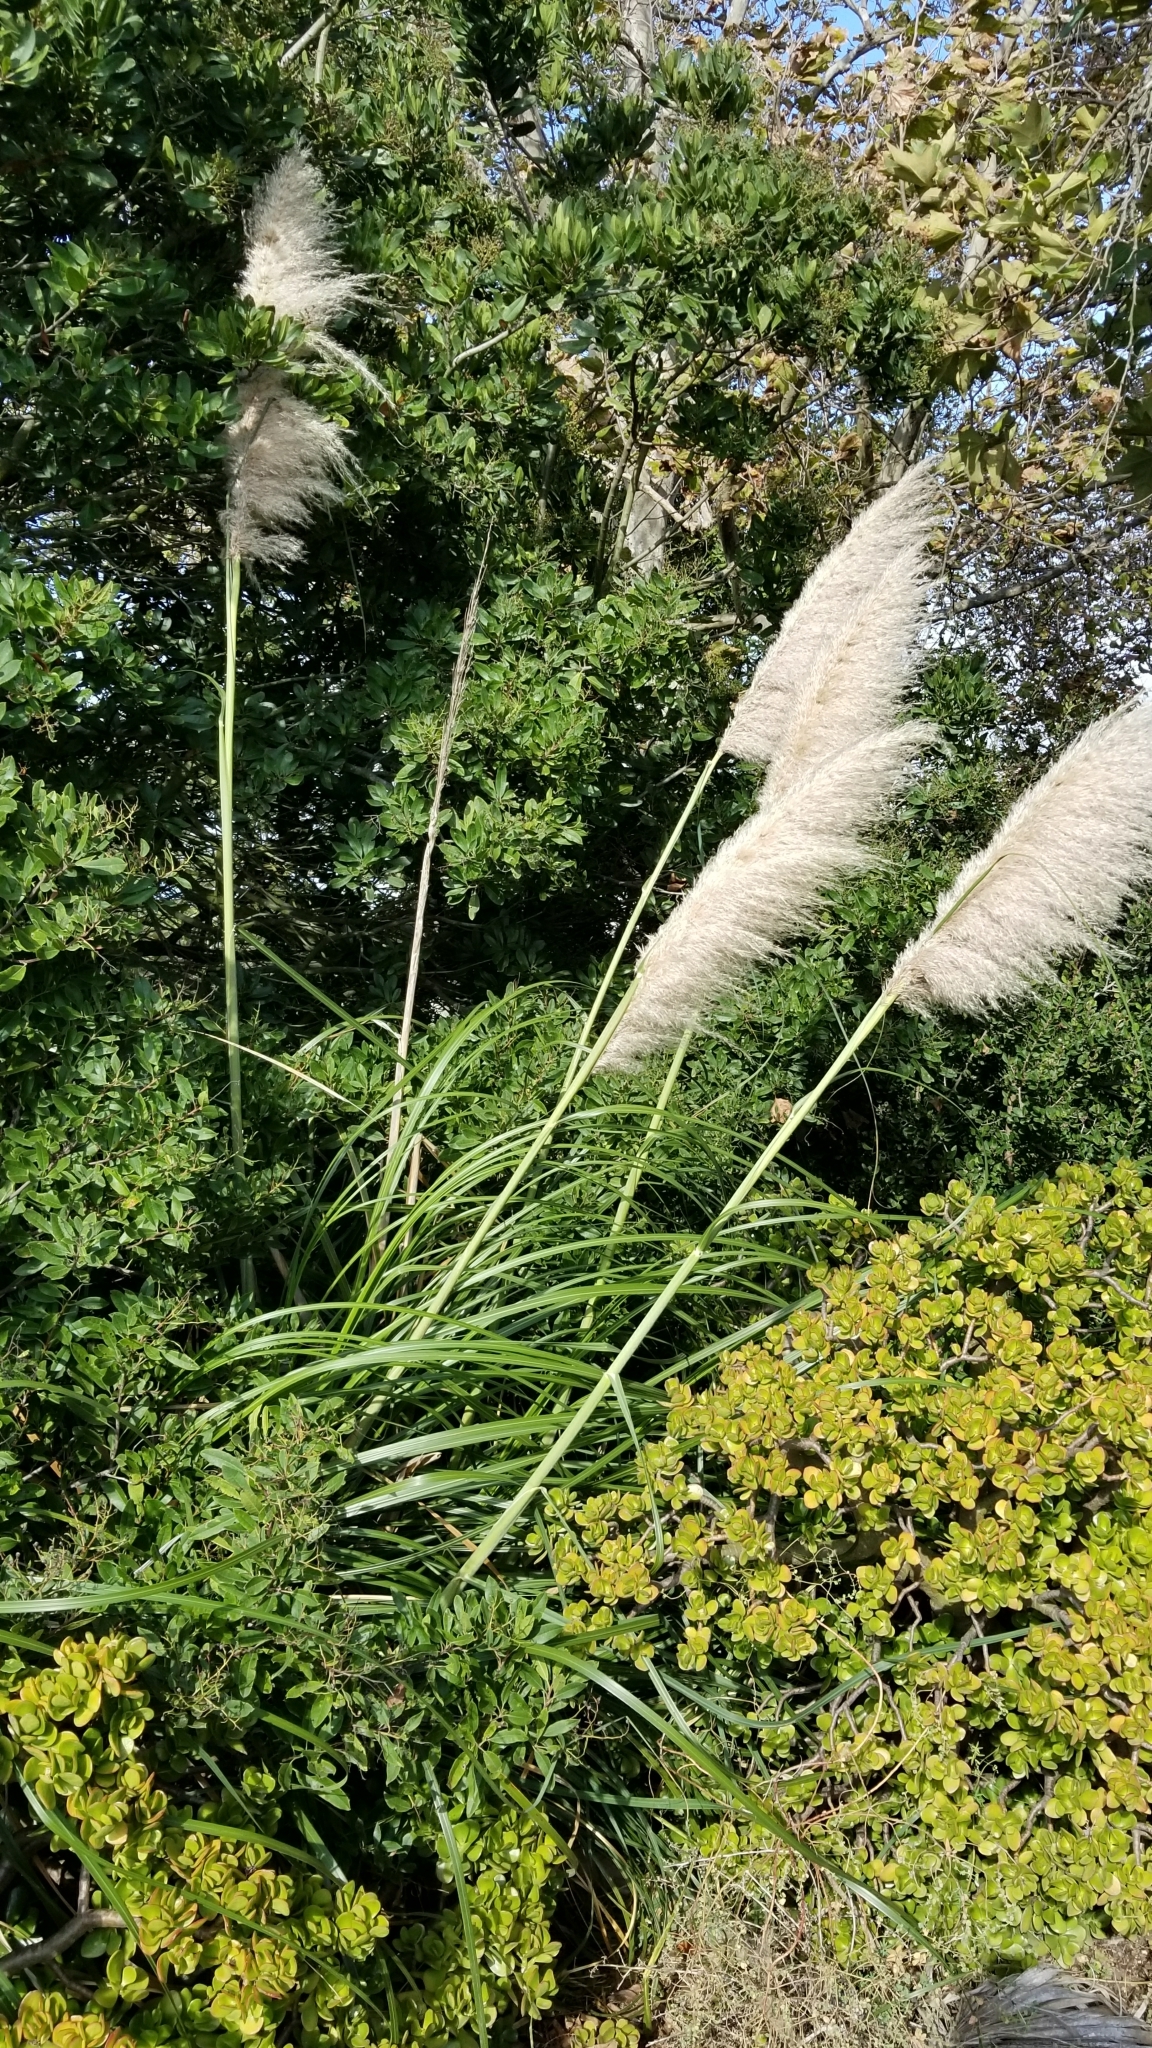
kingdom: Plantae
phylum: Tracheophyta
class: Liliopsida
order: Poales
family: Poaceae
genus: Cortaderia
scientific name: Cortaderia selloana
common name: Uruguayan pampas grass
